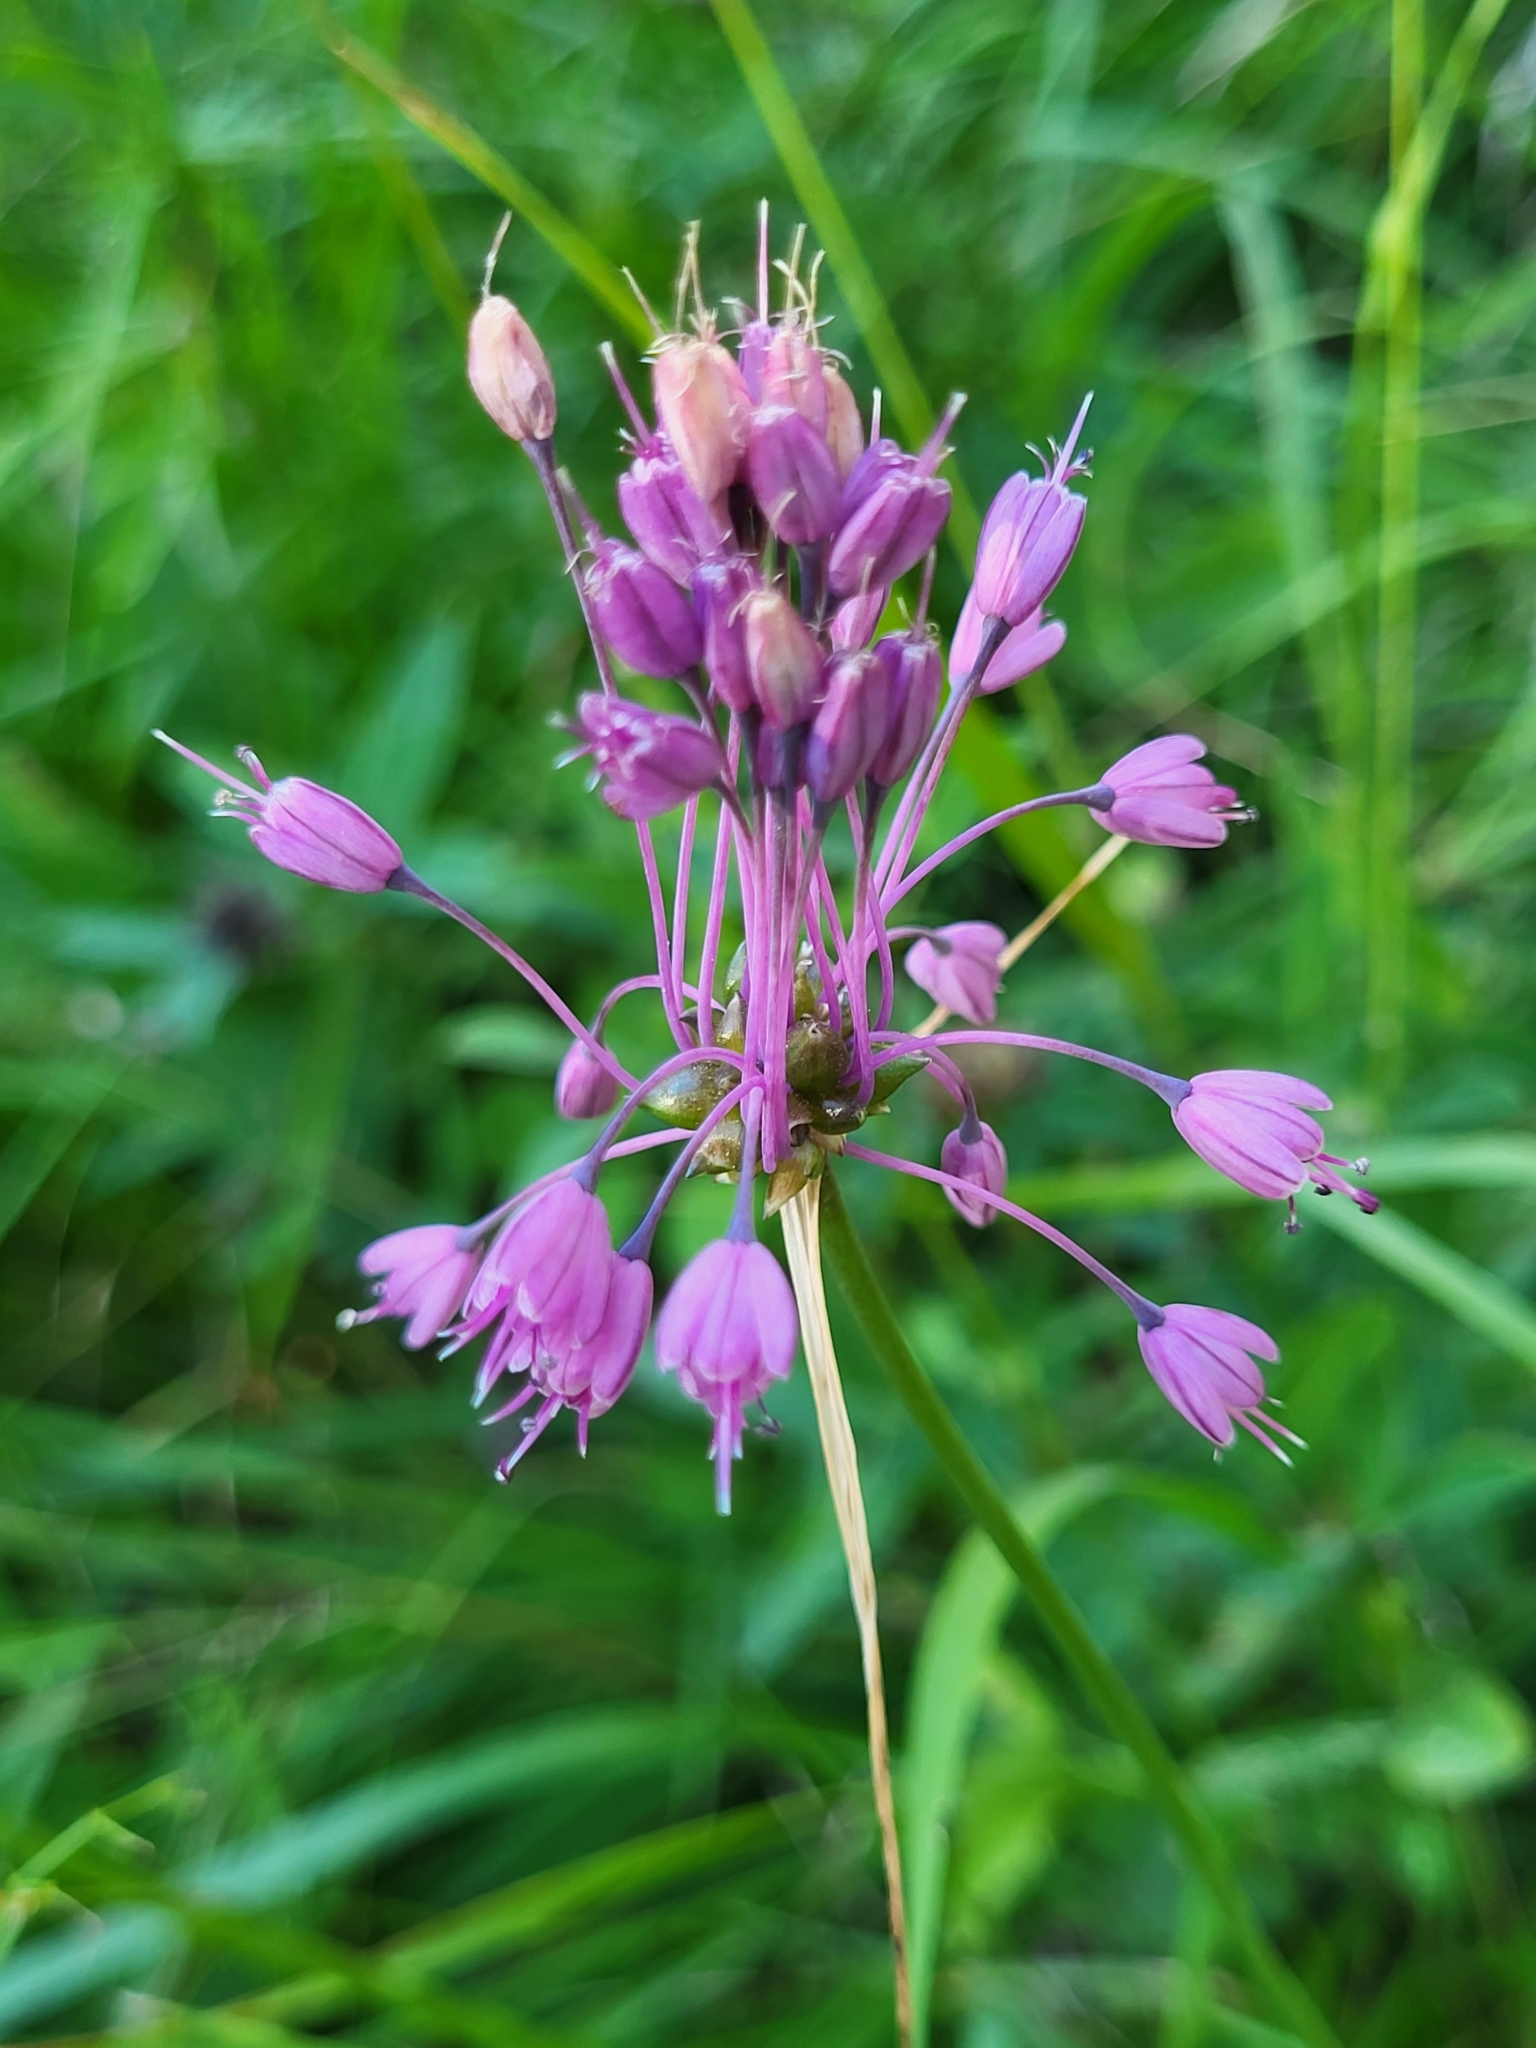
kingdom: Plantae
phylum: Tracheophyta
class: Liliopsida
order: Asparagales
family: Amaryllidaceae
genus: Allium
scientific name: Allium carinatum
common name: Keeled garlic
